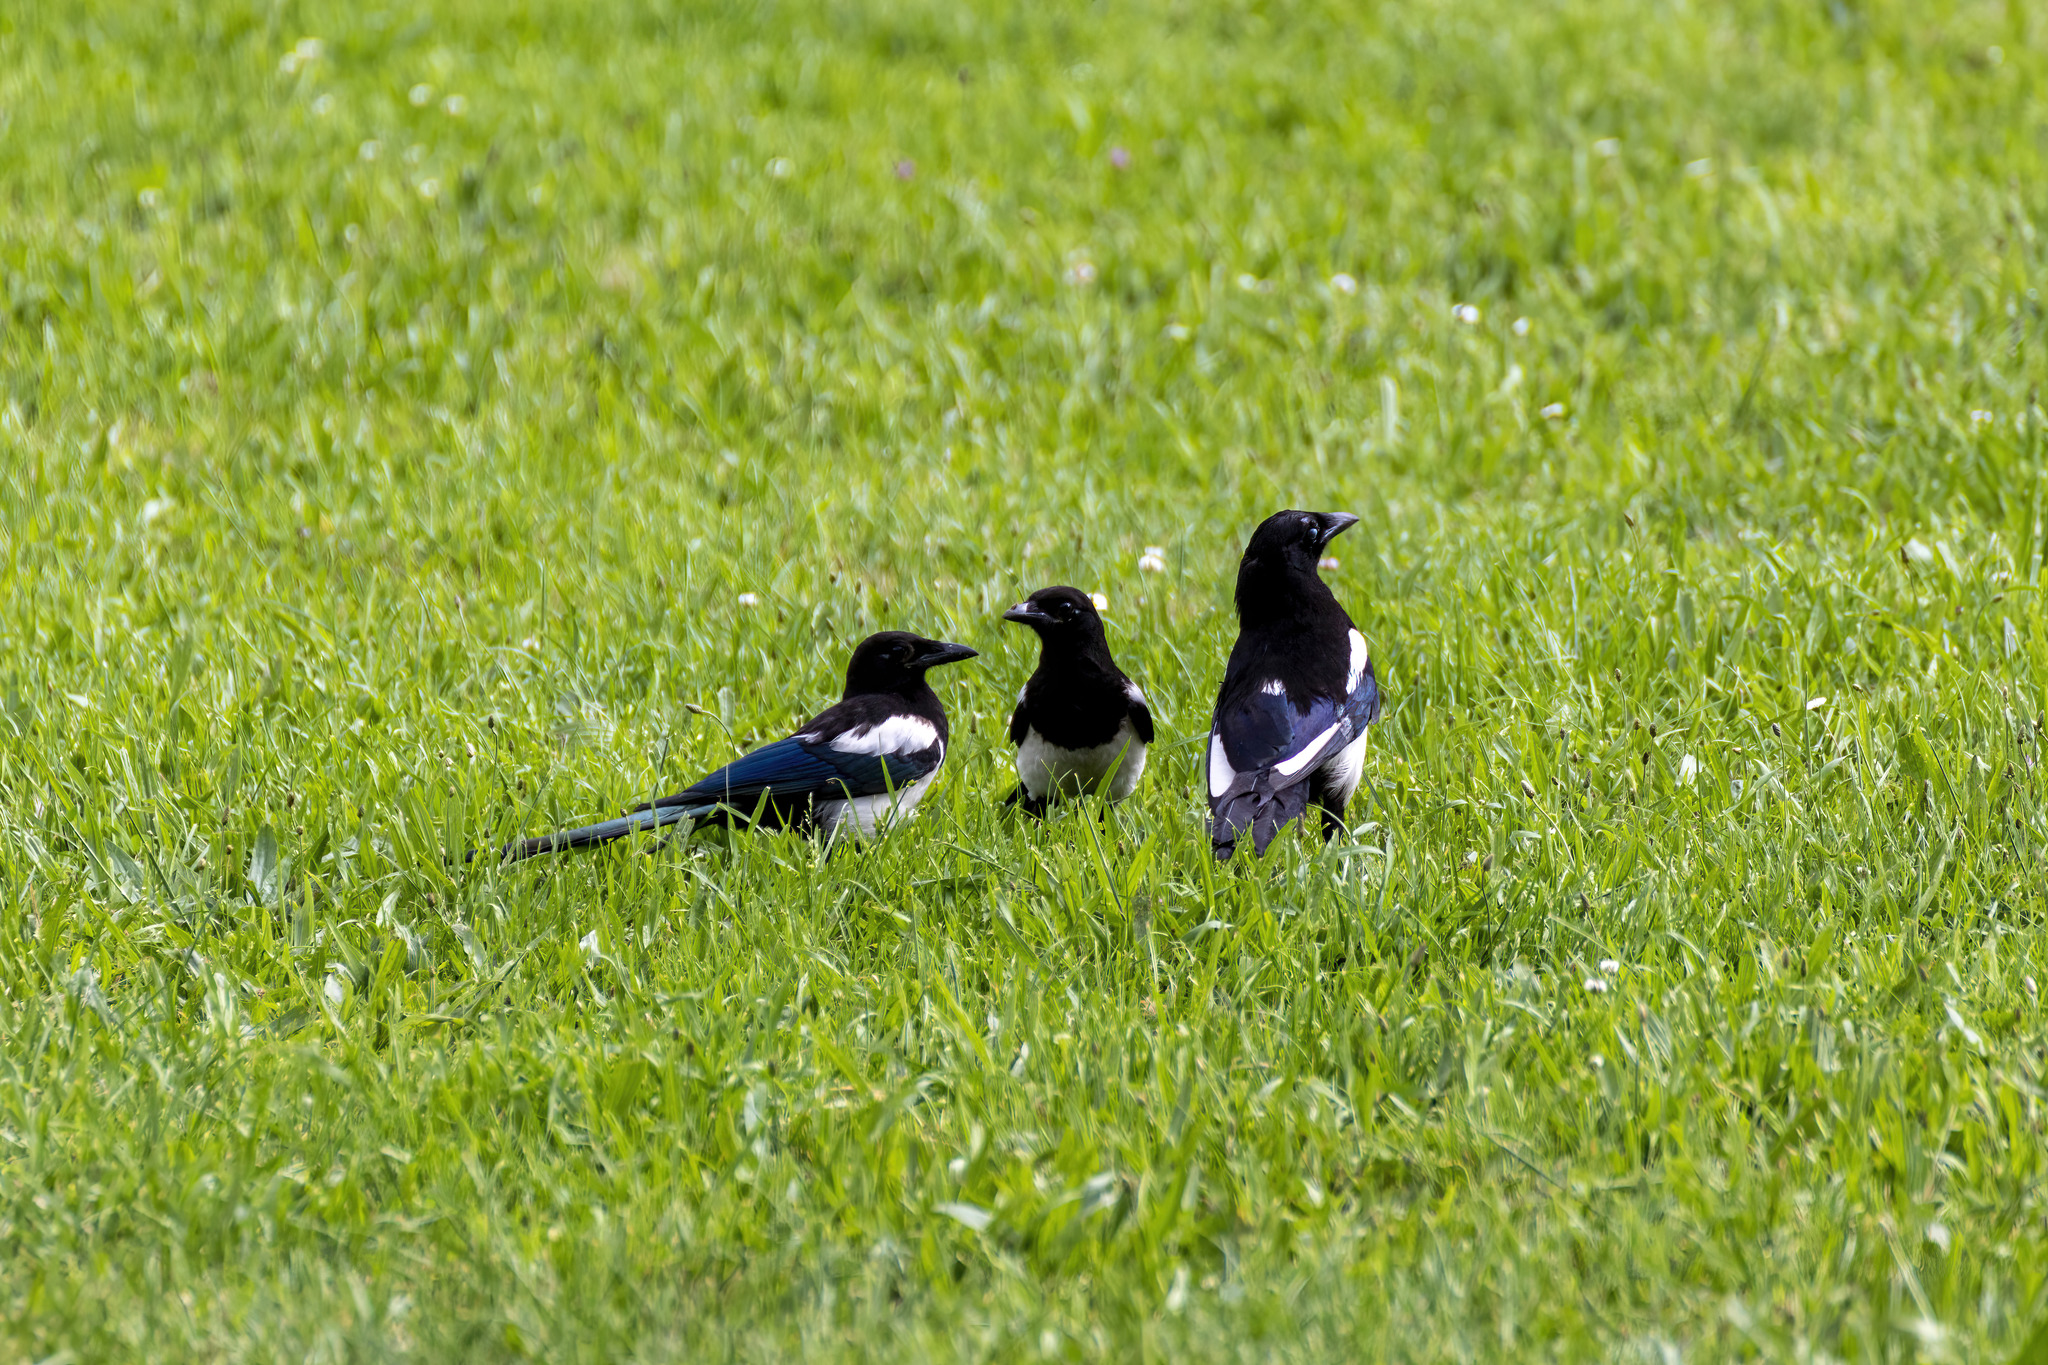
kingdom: Animalia
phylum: Chordata
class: Aves
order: Passeriformes
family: Corvidae
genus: Pica
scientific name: Pica pica
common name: Eurasian magpie
